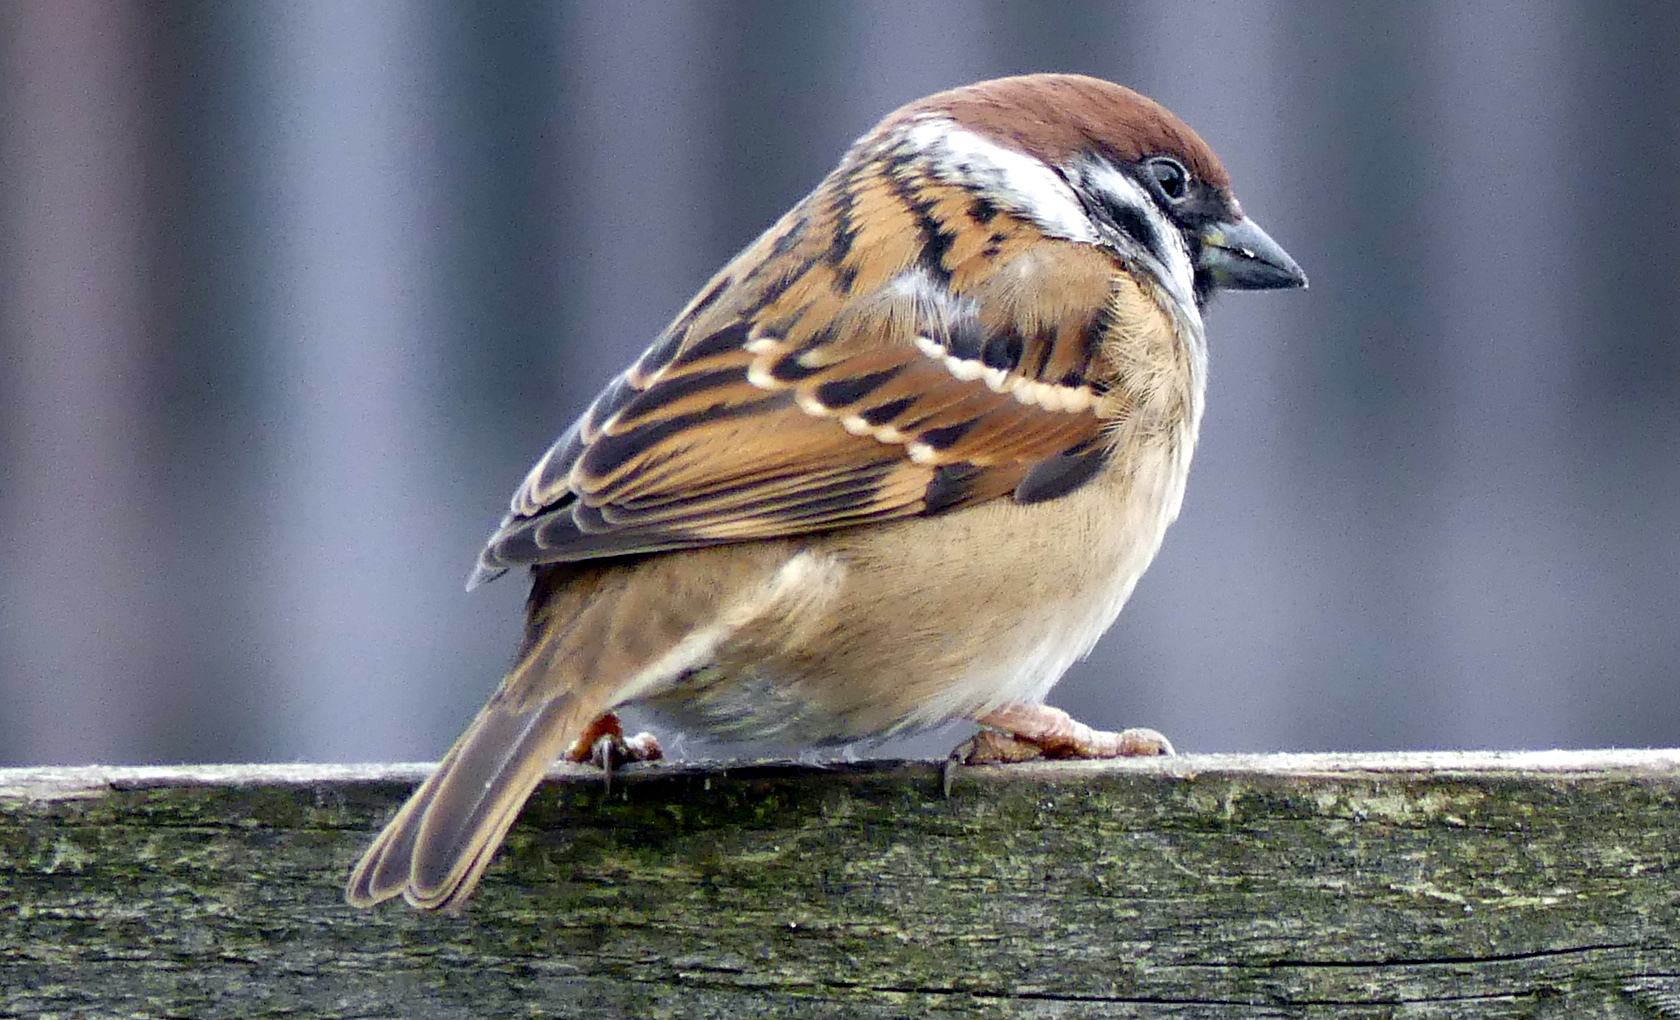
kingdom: Animalia
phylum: Chordata
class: Aves
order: Passeriformes
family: Passeridae
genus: Passer
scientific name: Passer montanus
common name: Eurasian tree sparrow
